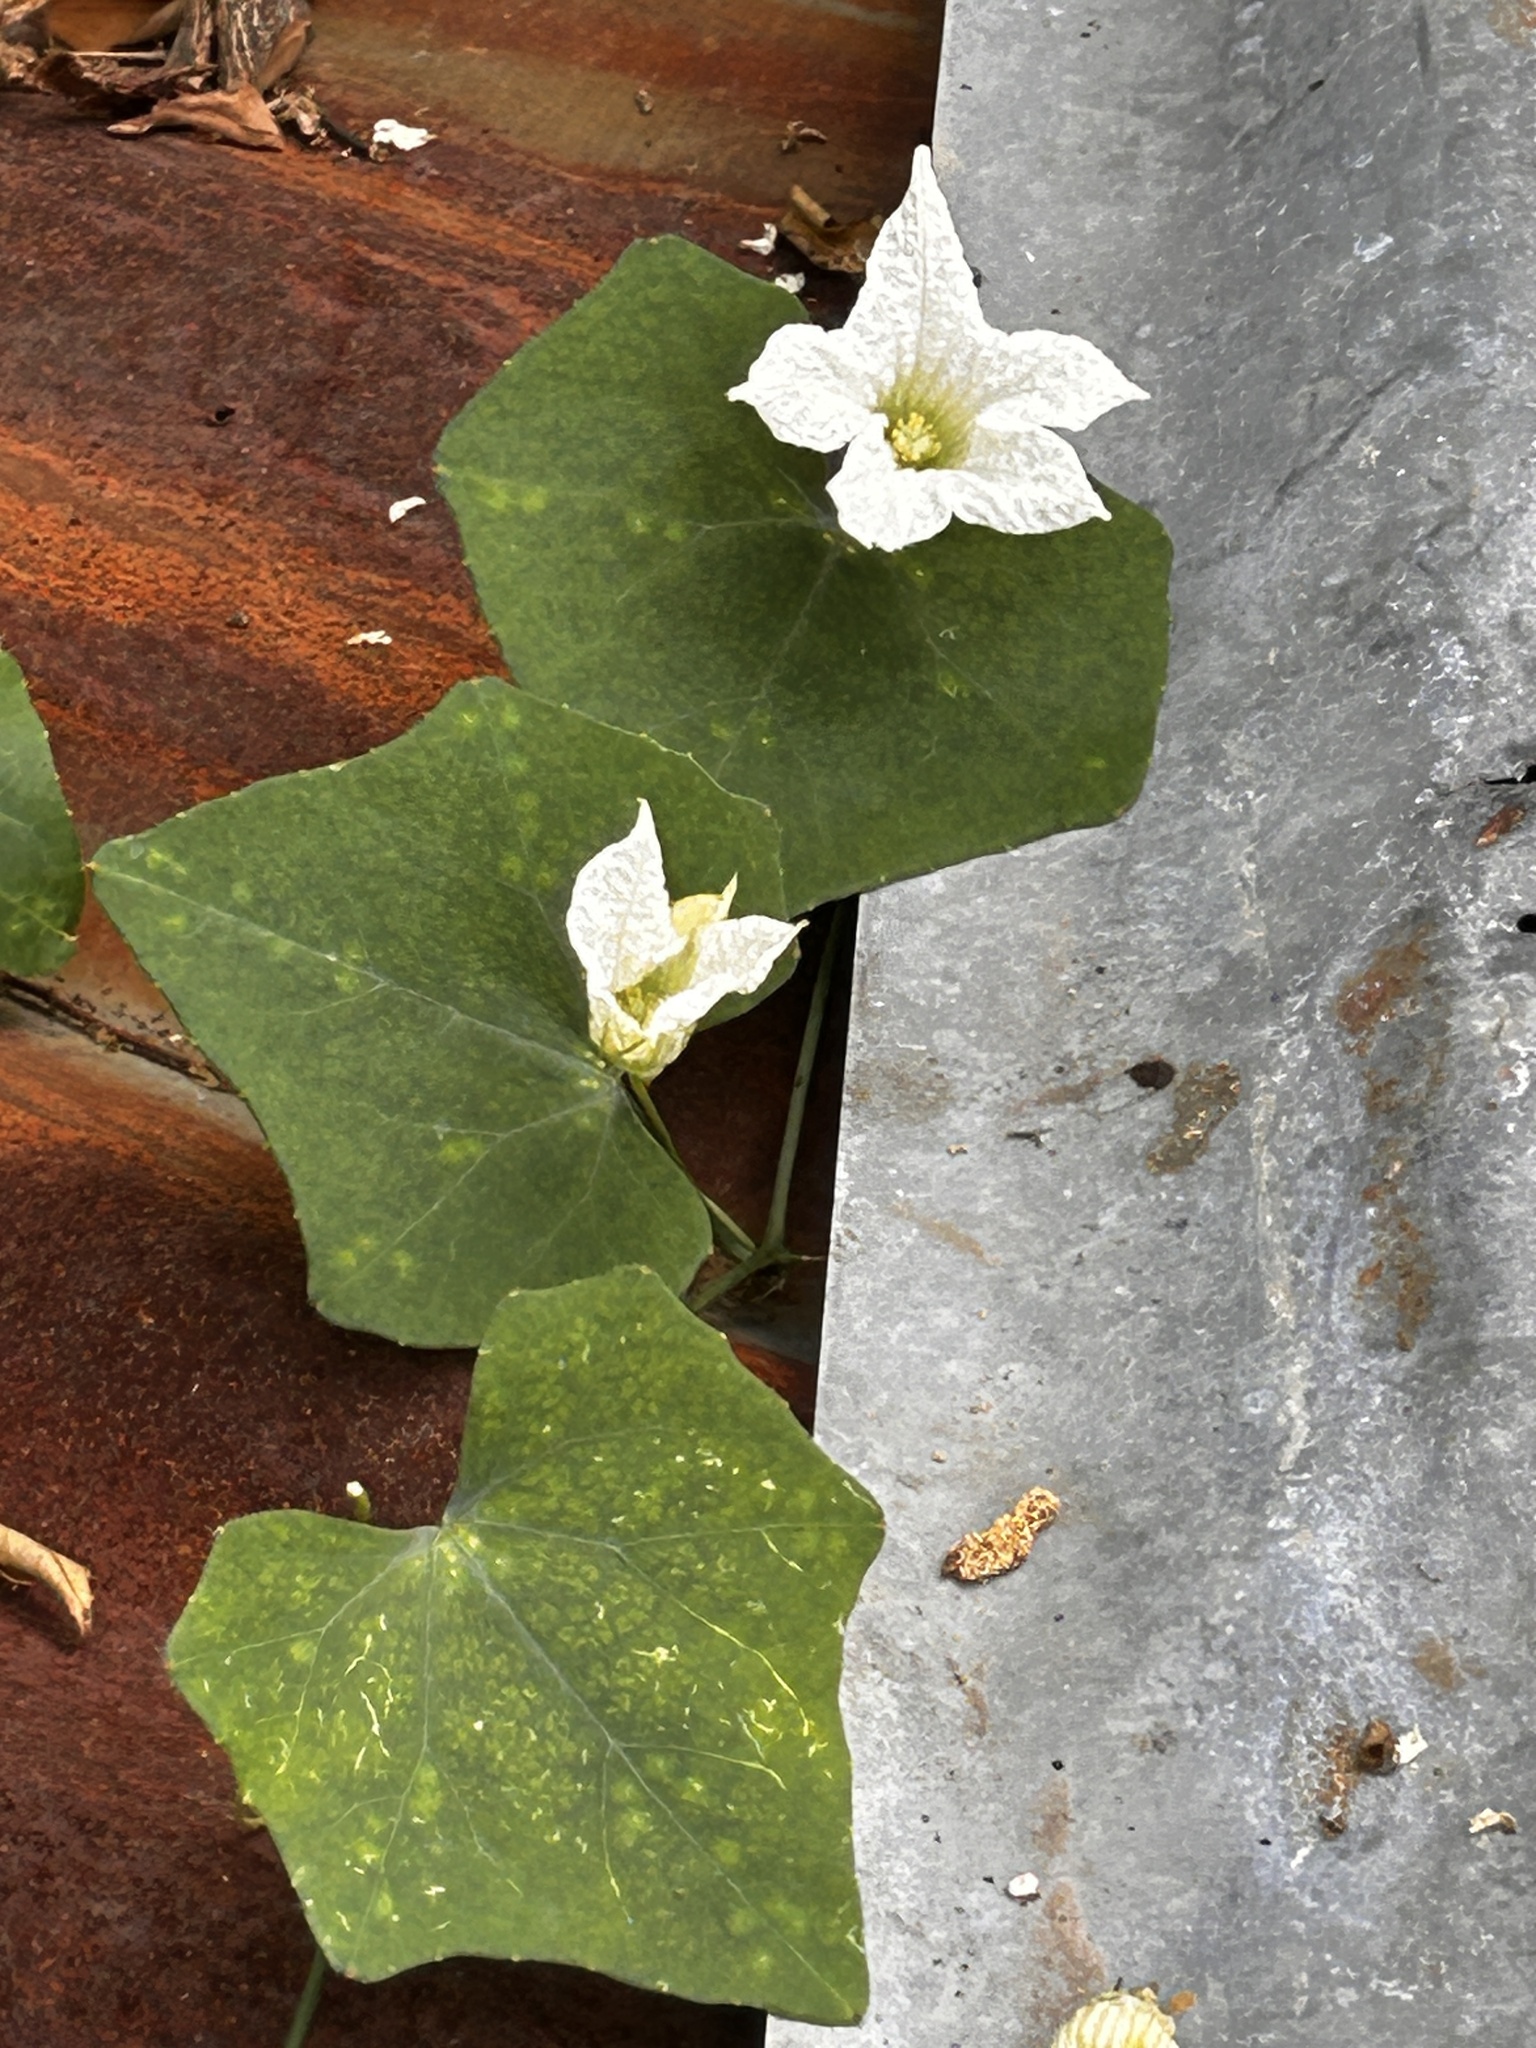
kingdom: Plantae
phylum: Tracheophyta
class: Magnoliopsida
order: Cucurbitales
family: Cucurbitaceae
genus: Coccinia
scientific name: Coccinia grandis
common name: Ivy gourd
